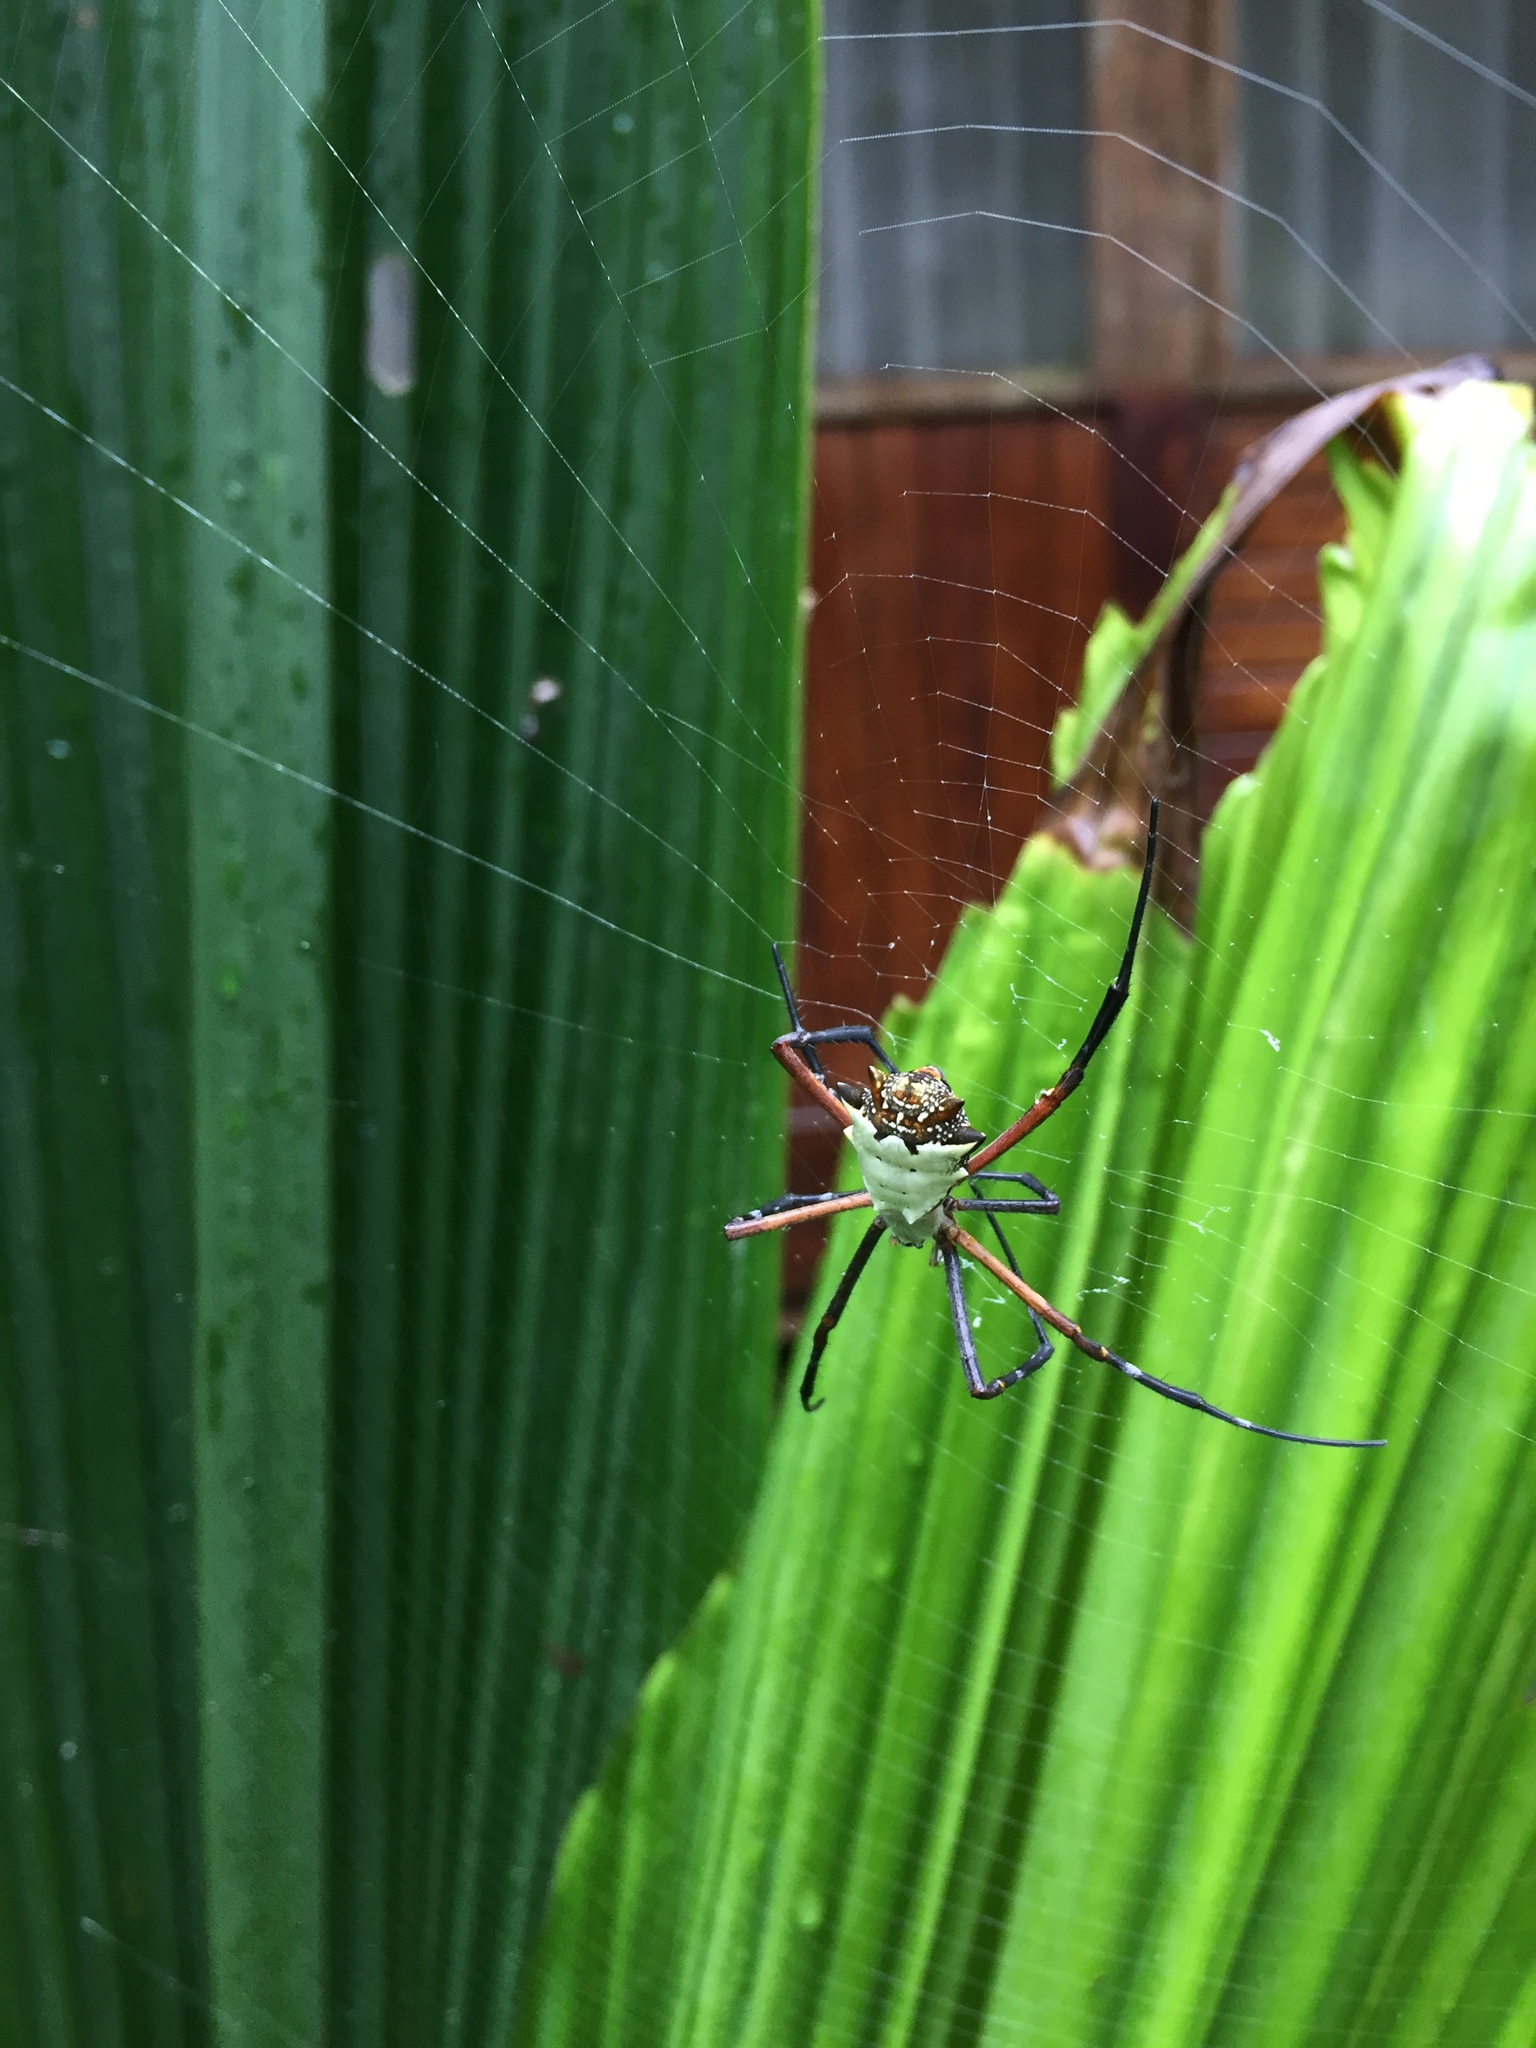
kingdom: Animalia
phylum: Arthropoda
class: Arachnida
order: Araneae
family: Araneidae
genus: Argiope
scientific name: Argiope submaronica
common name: Orb weavers
